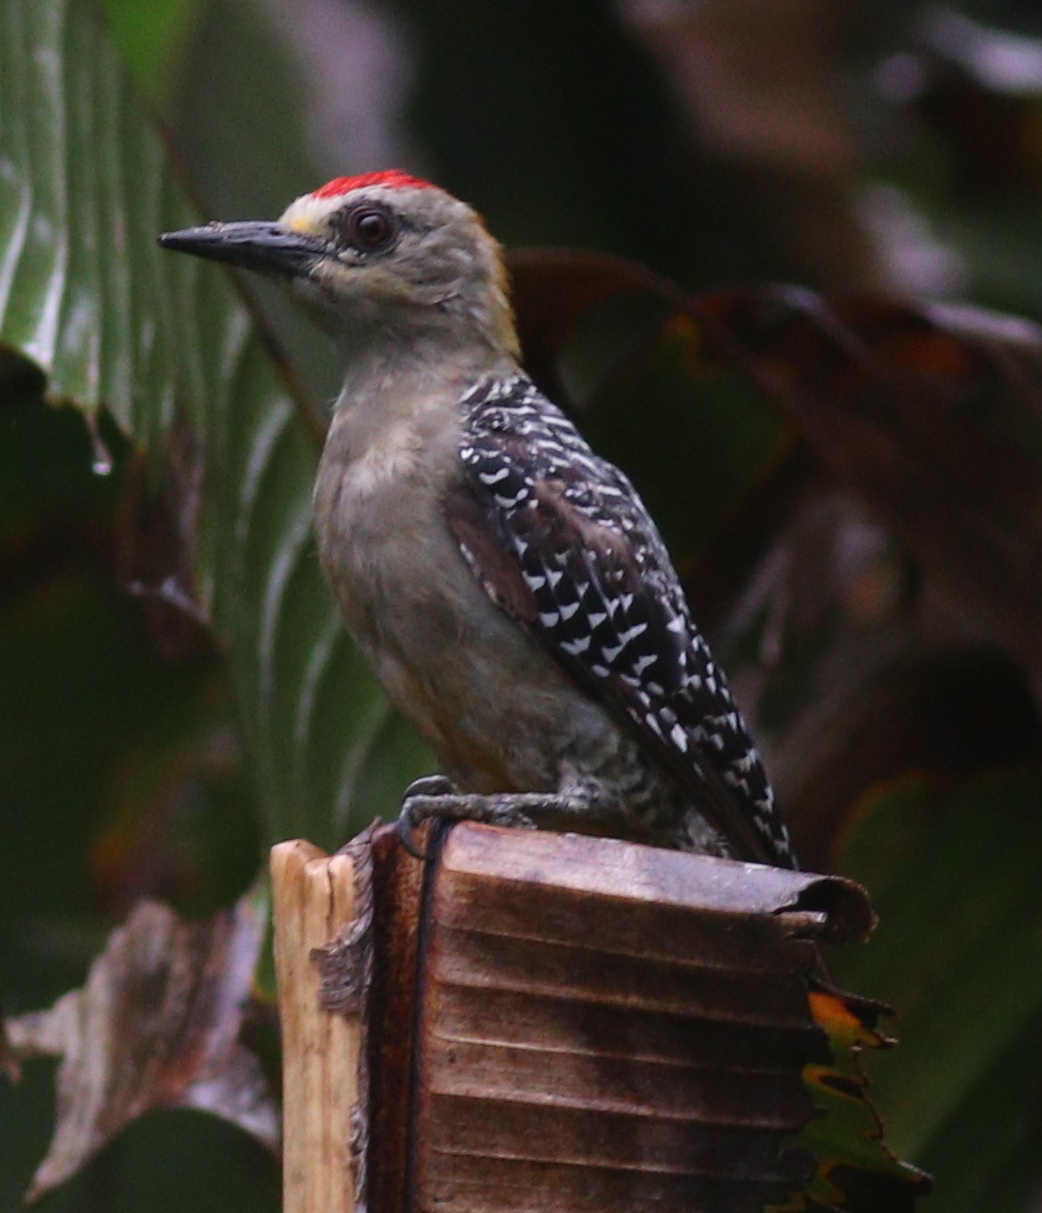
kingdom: Animalia
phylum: Chordata
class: Aves
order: Piciformes
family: Picidae
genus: Melanerpes
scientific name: Melanerpes hoffmannii
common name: Hoffmann's woodpecker
